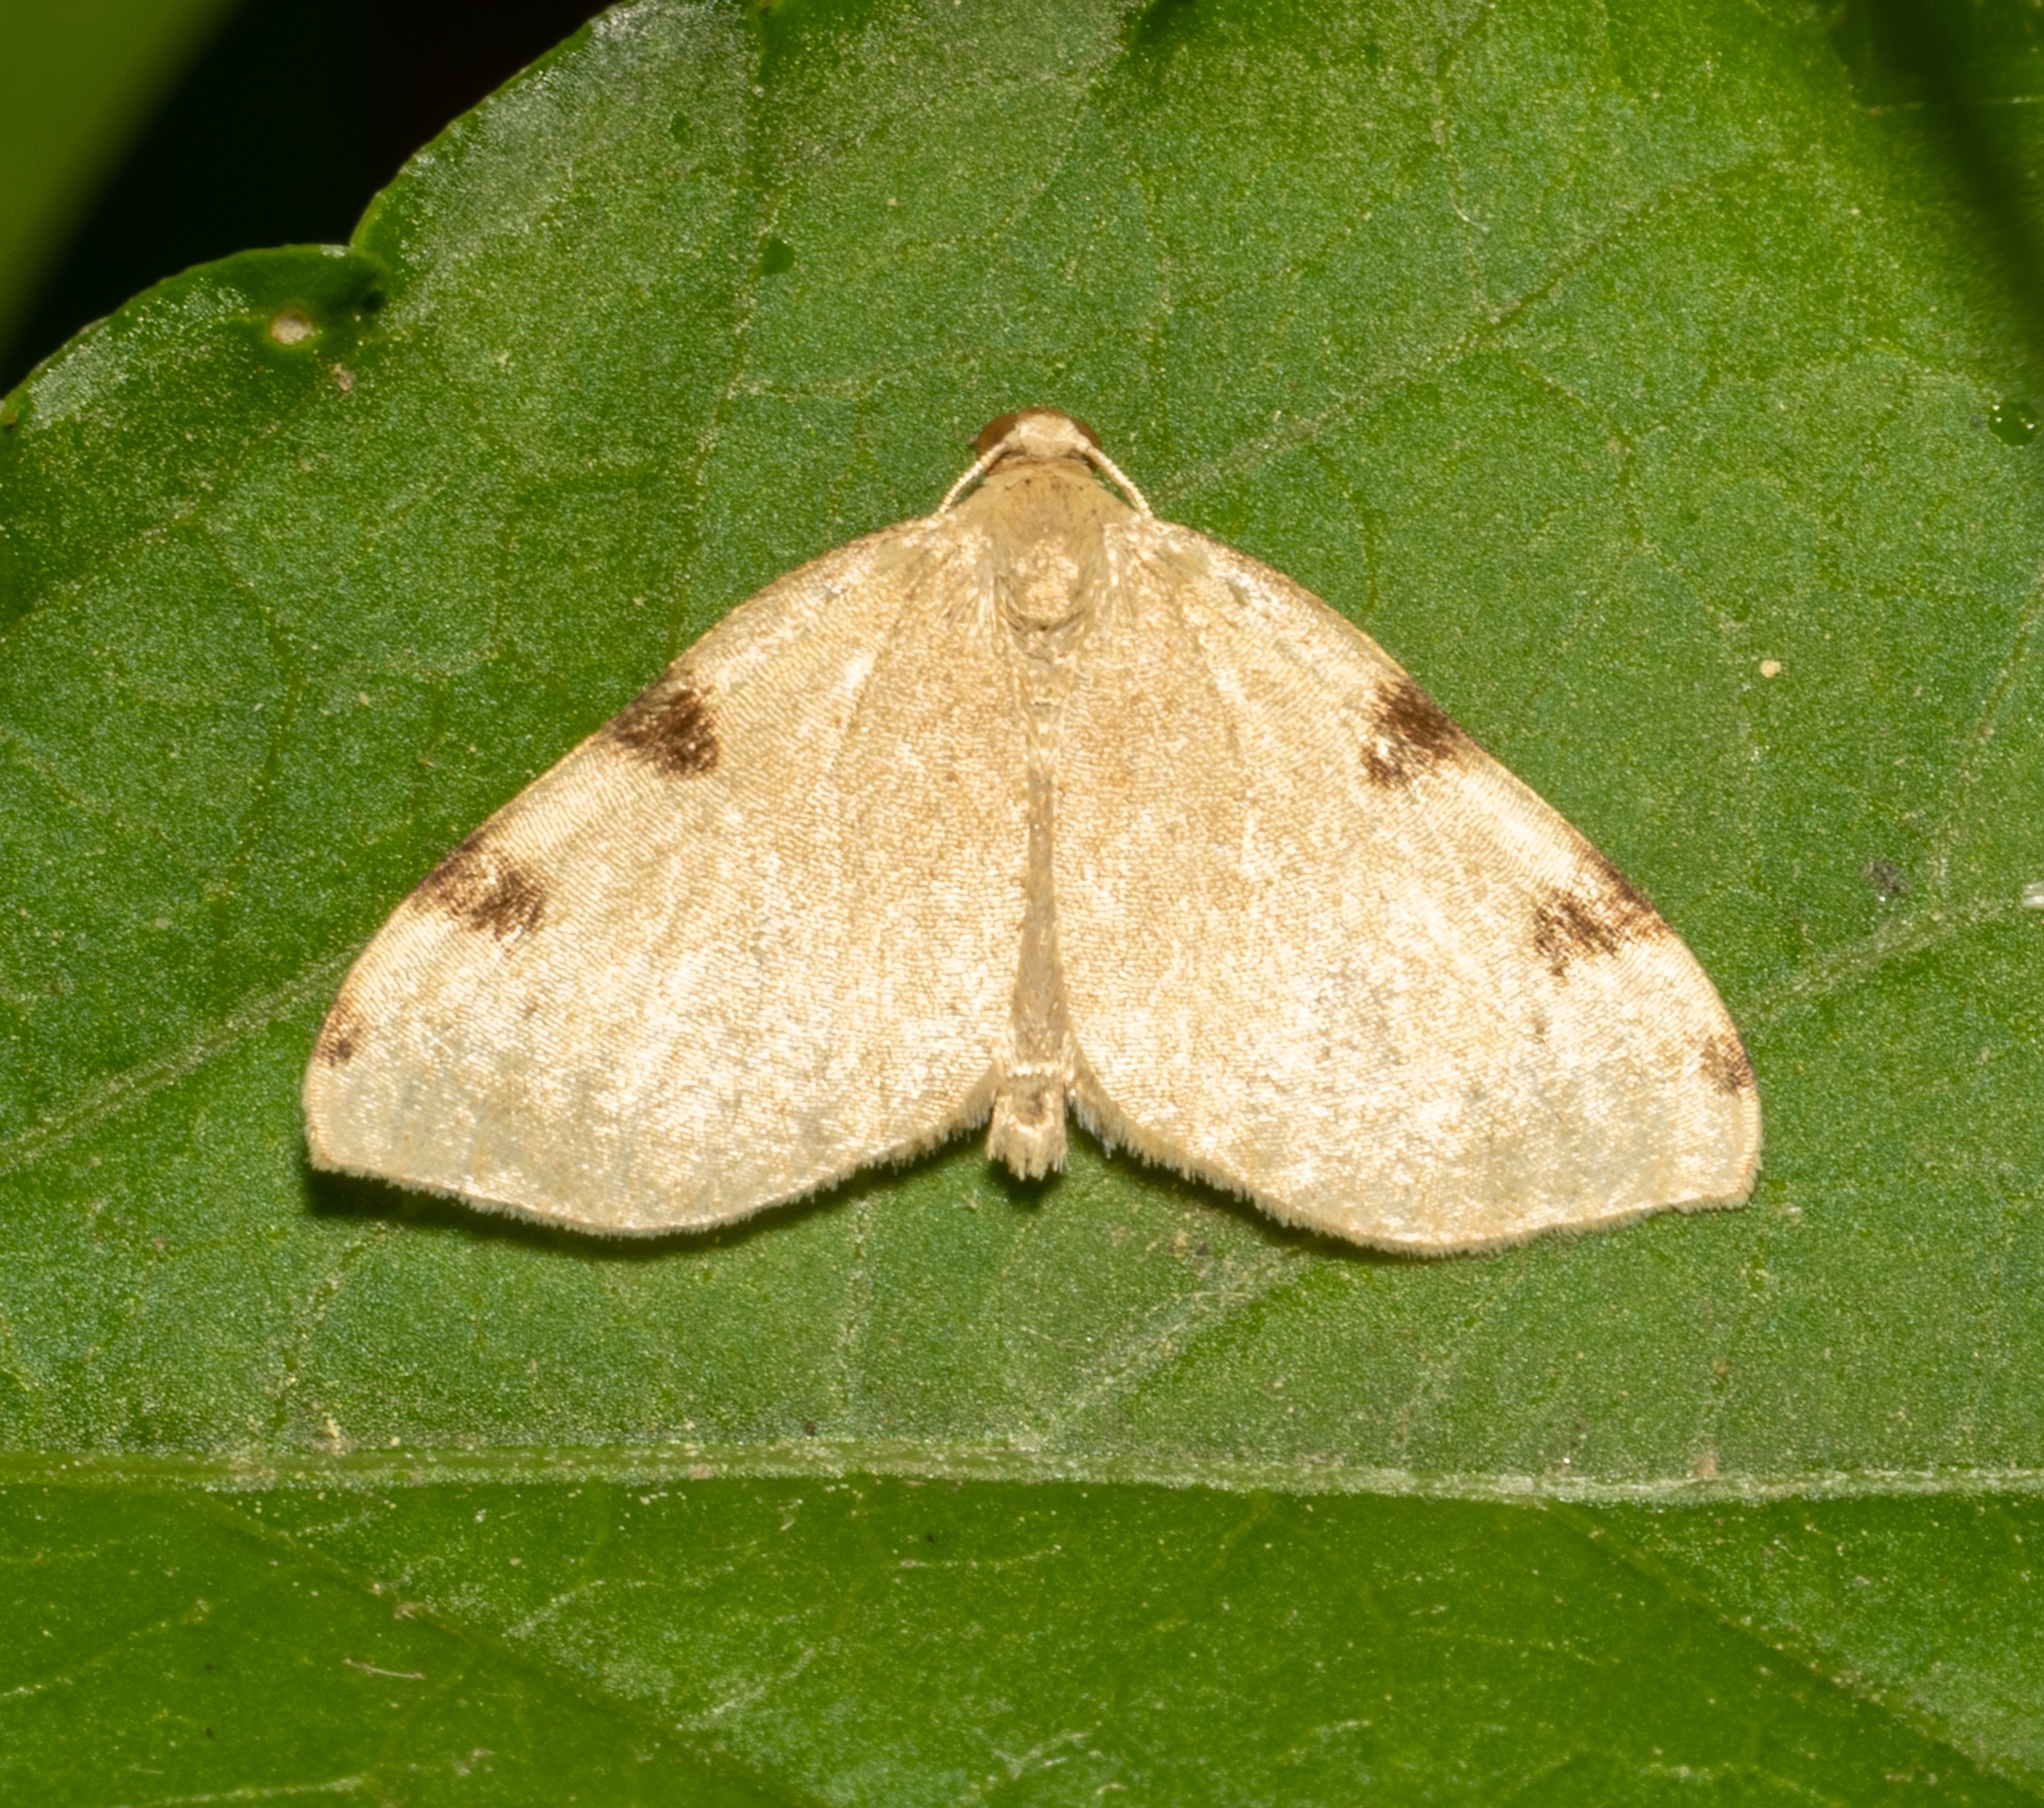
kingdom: Animalia
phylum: Arthropoda
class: Insecta
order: Lepidoptera
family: Geometridae
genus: Heterophleps
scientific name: Heterophleps triguttaria
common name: Three-spotted fillip
